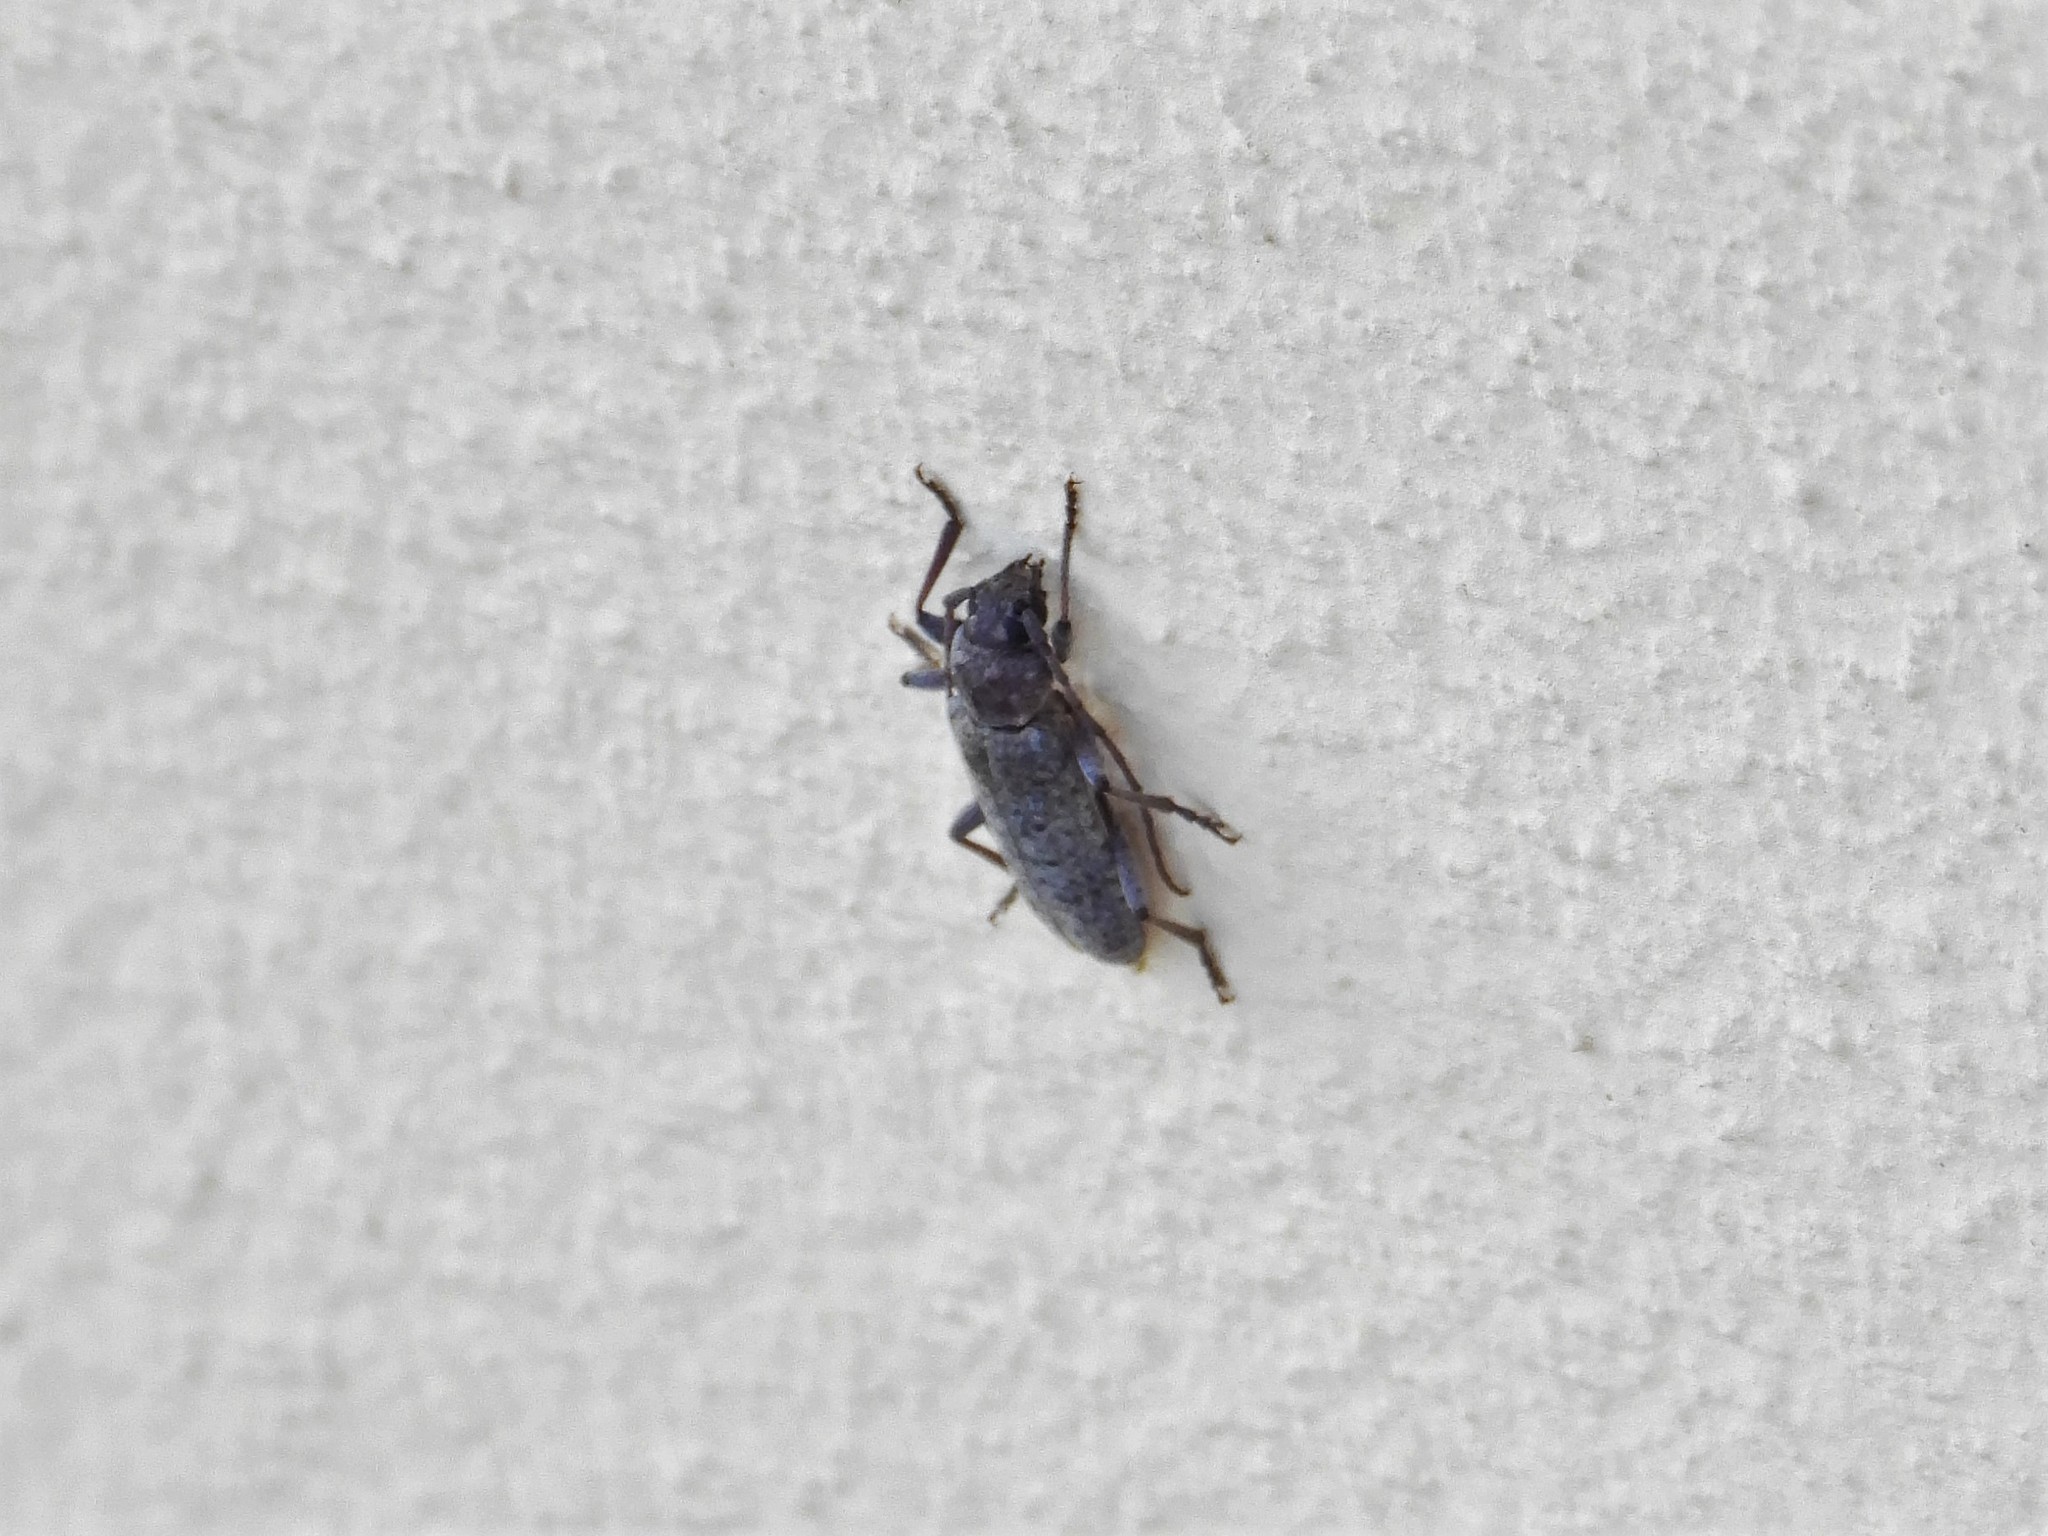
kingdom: Animalia
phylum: Arthropoda
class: Insecta
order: Coleoptera
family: Cerambycidae
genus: Trichoferus
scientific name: Trichoferus holosericeus
